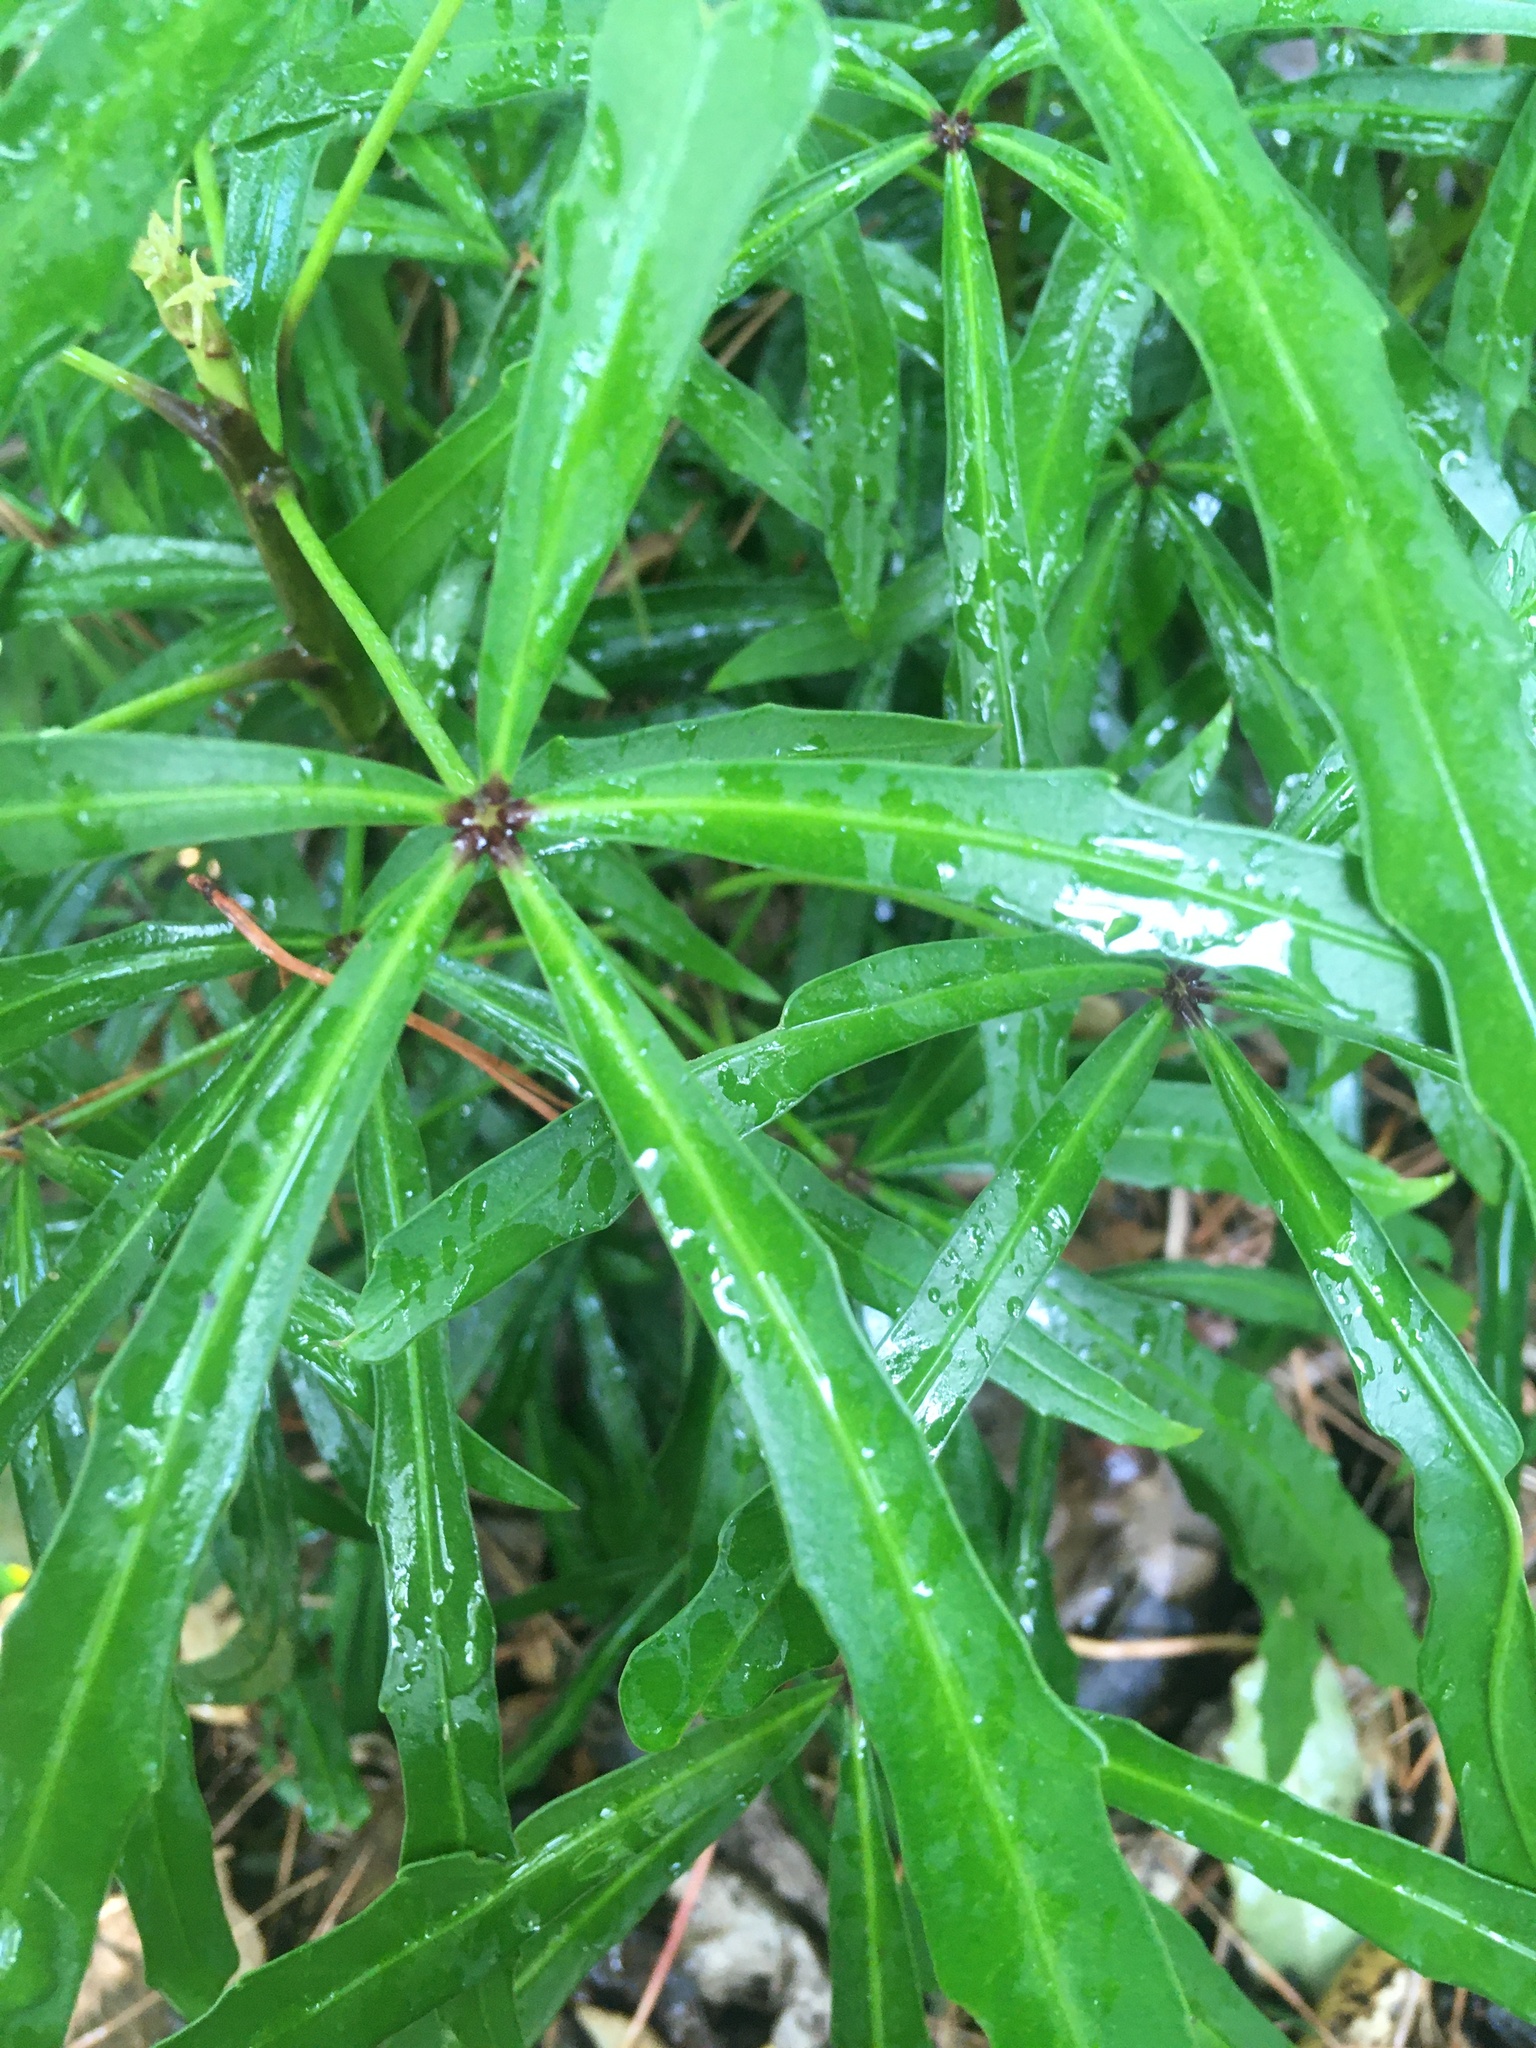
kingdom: Plantae
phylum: Tracheophyta
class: Magnoliopsida
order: Apiales
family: Araliaceae
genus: Pseudopanax
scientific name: Pseudopanax
